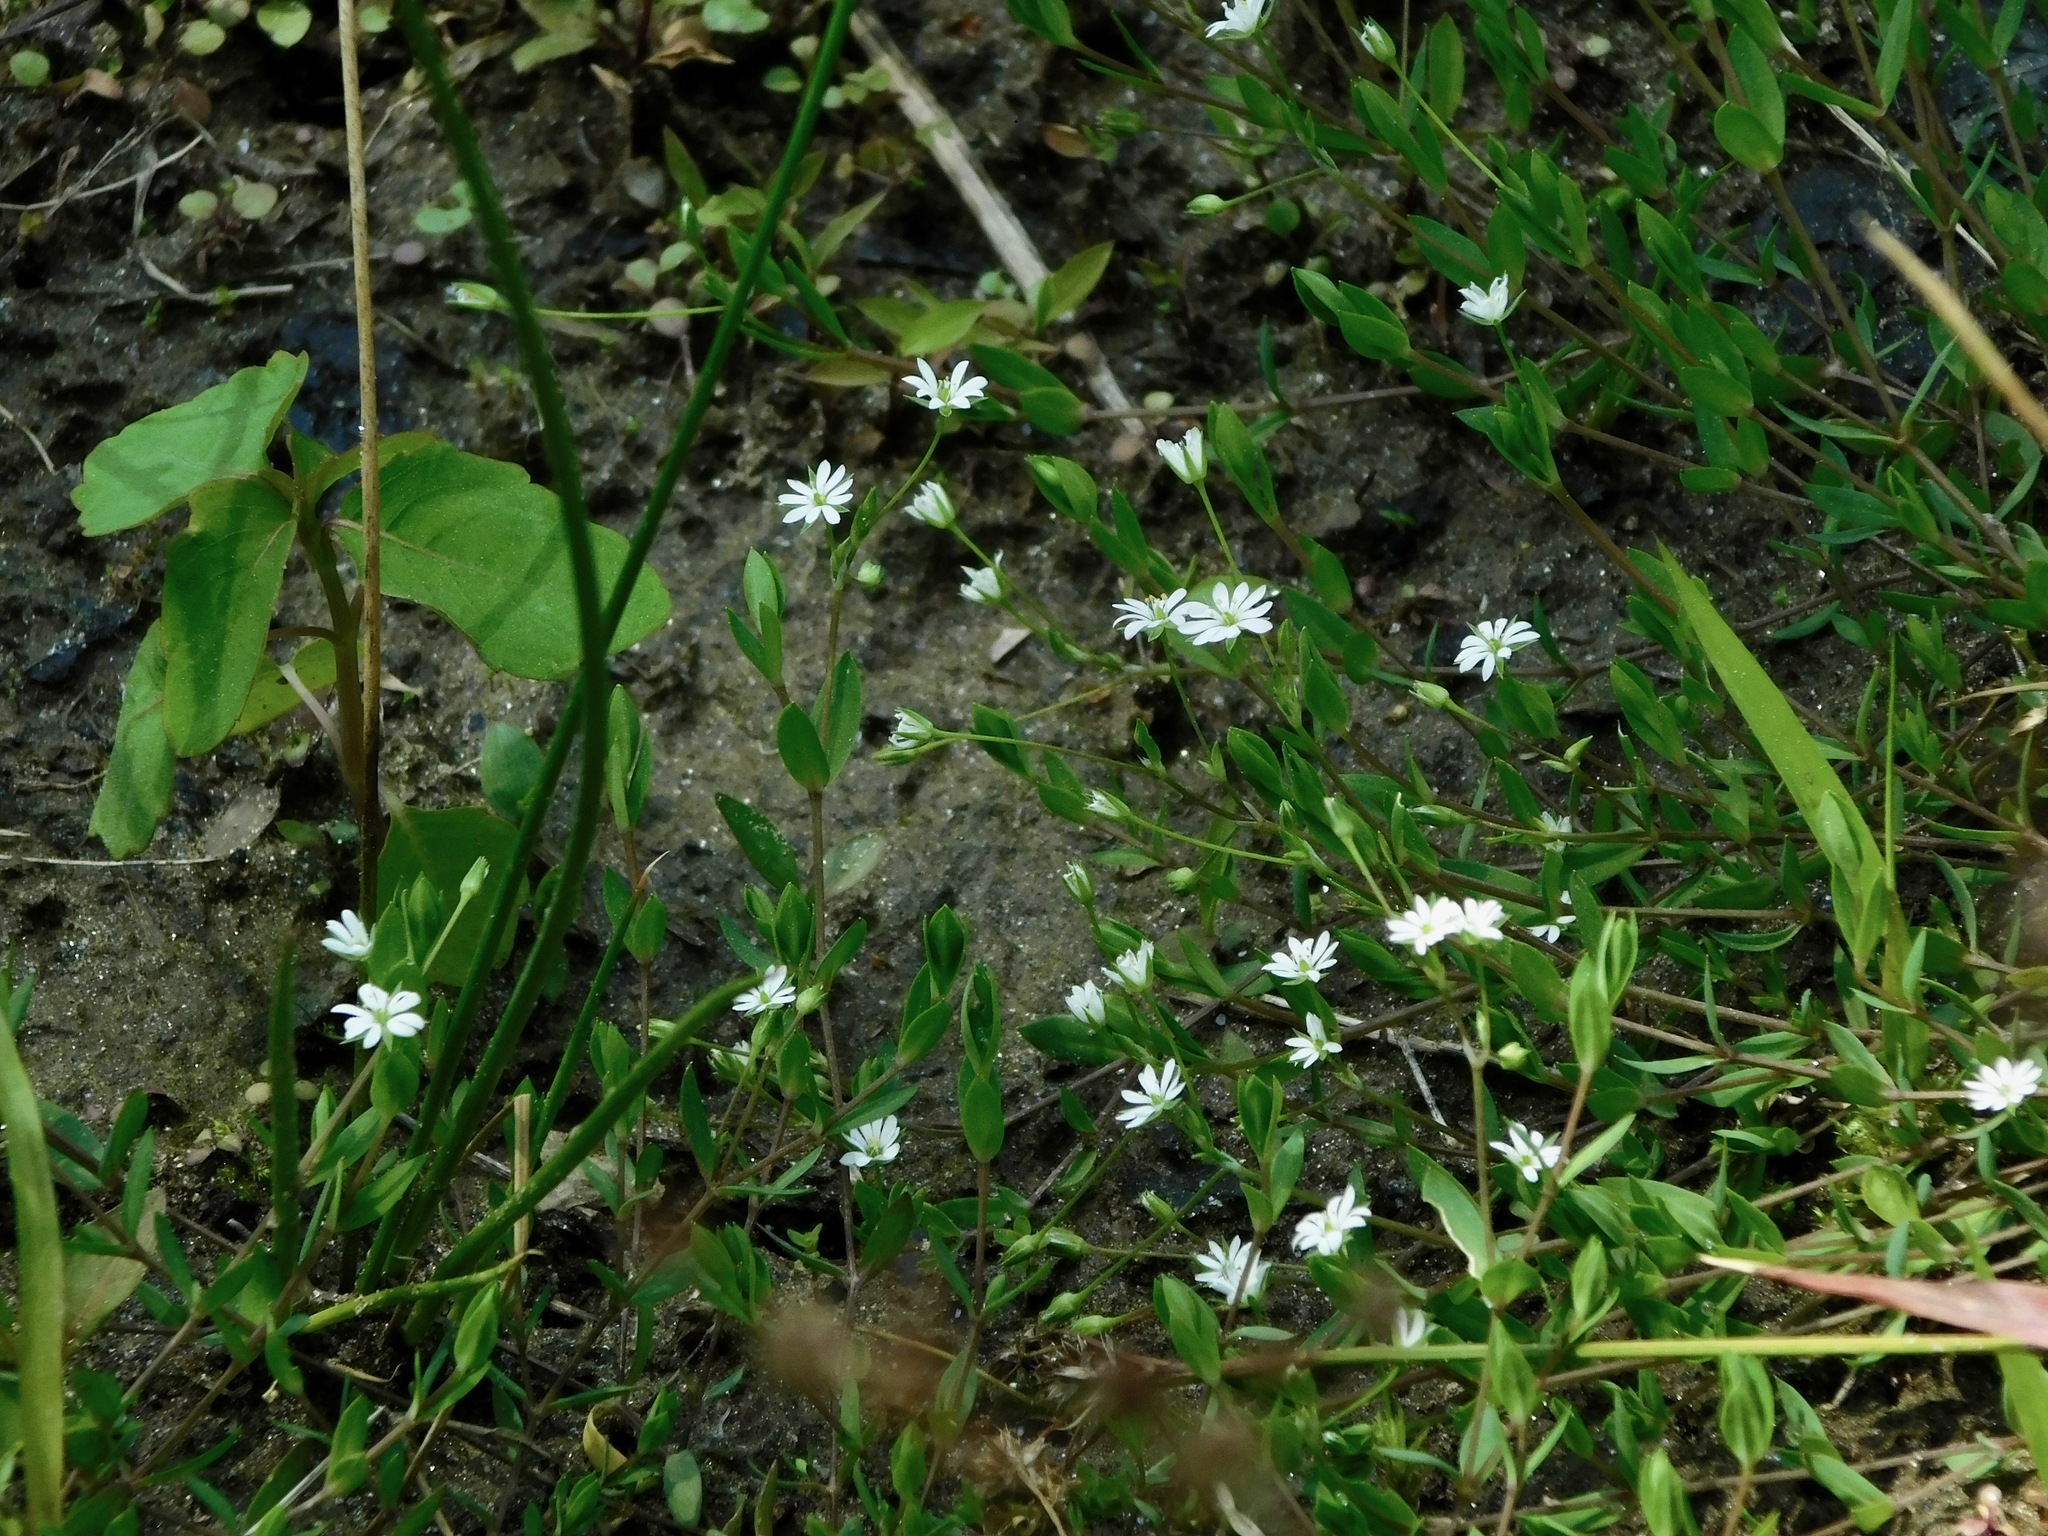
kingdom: Plantae
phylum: Tracheophyta
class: Magnoliopsida
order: Caryophyllales
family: Caryophyllaceae
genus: Cerastium
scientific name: Cerastium nutans
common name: Long-stalked chickweed
